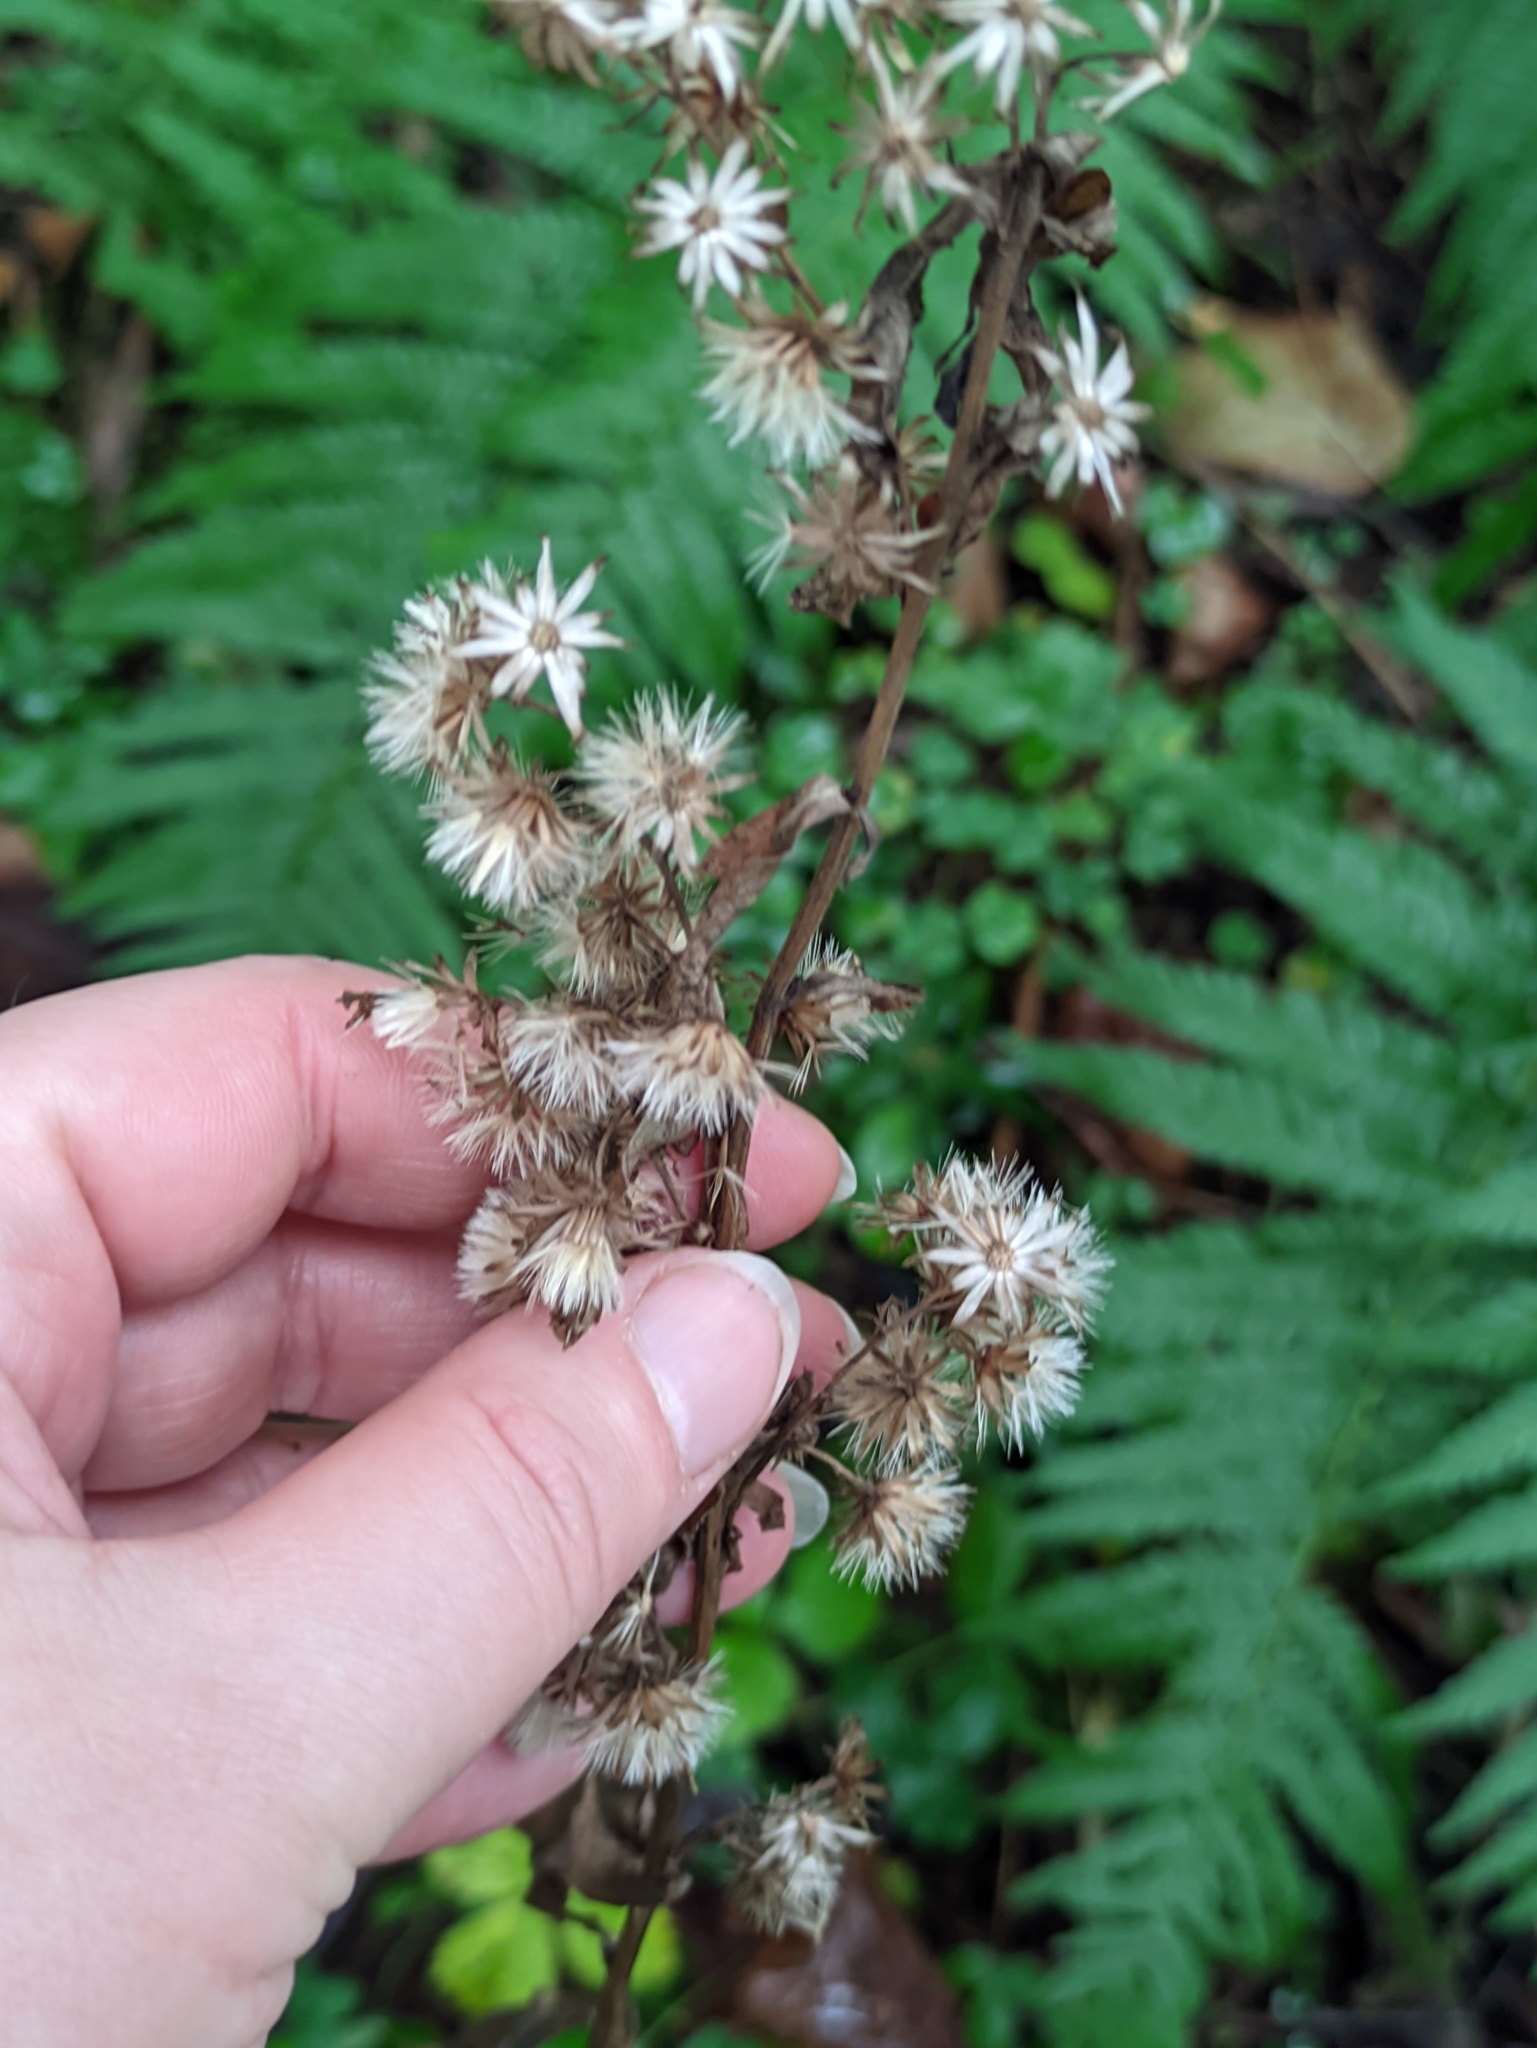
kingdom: Plantae
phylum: Tracheophyta
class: Magnoliopsida
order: Asterales
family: Asteraceae
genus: Solidago
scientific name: Solidago virgaurea
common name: Goldenrod
